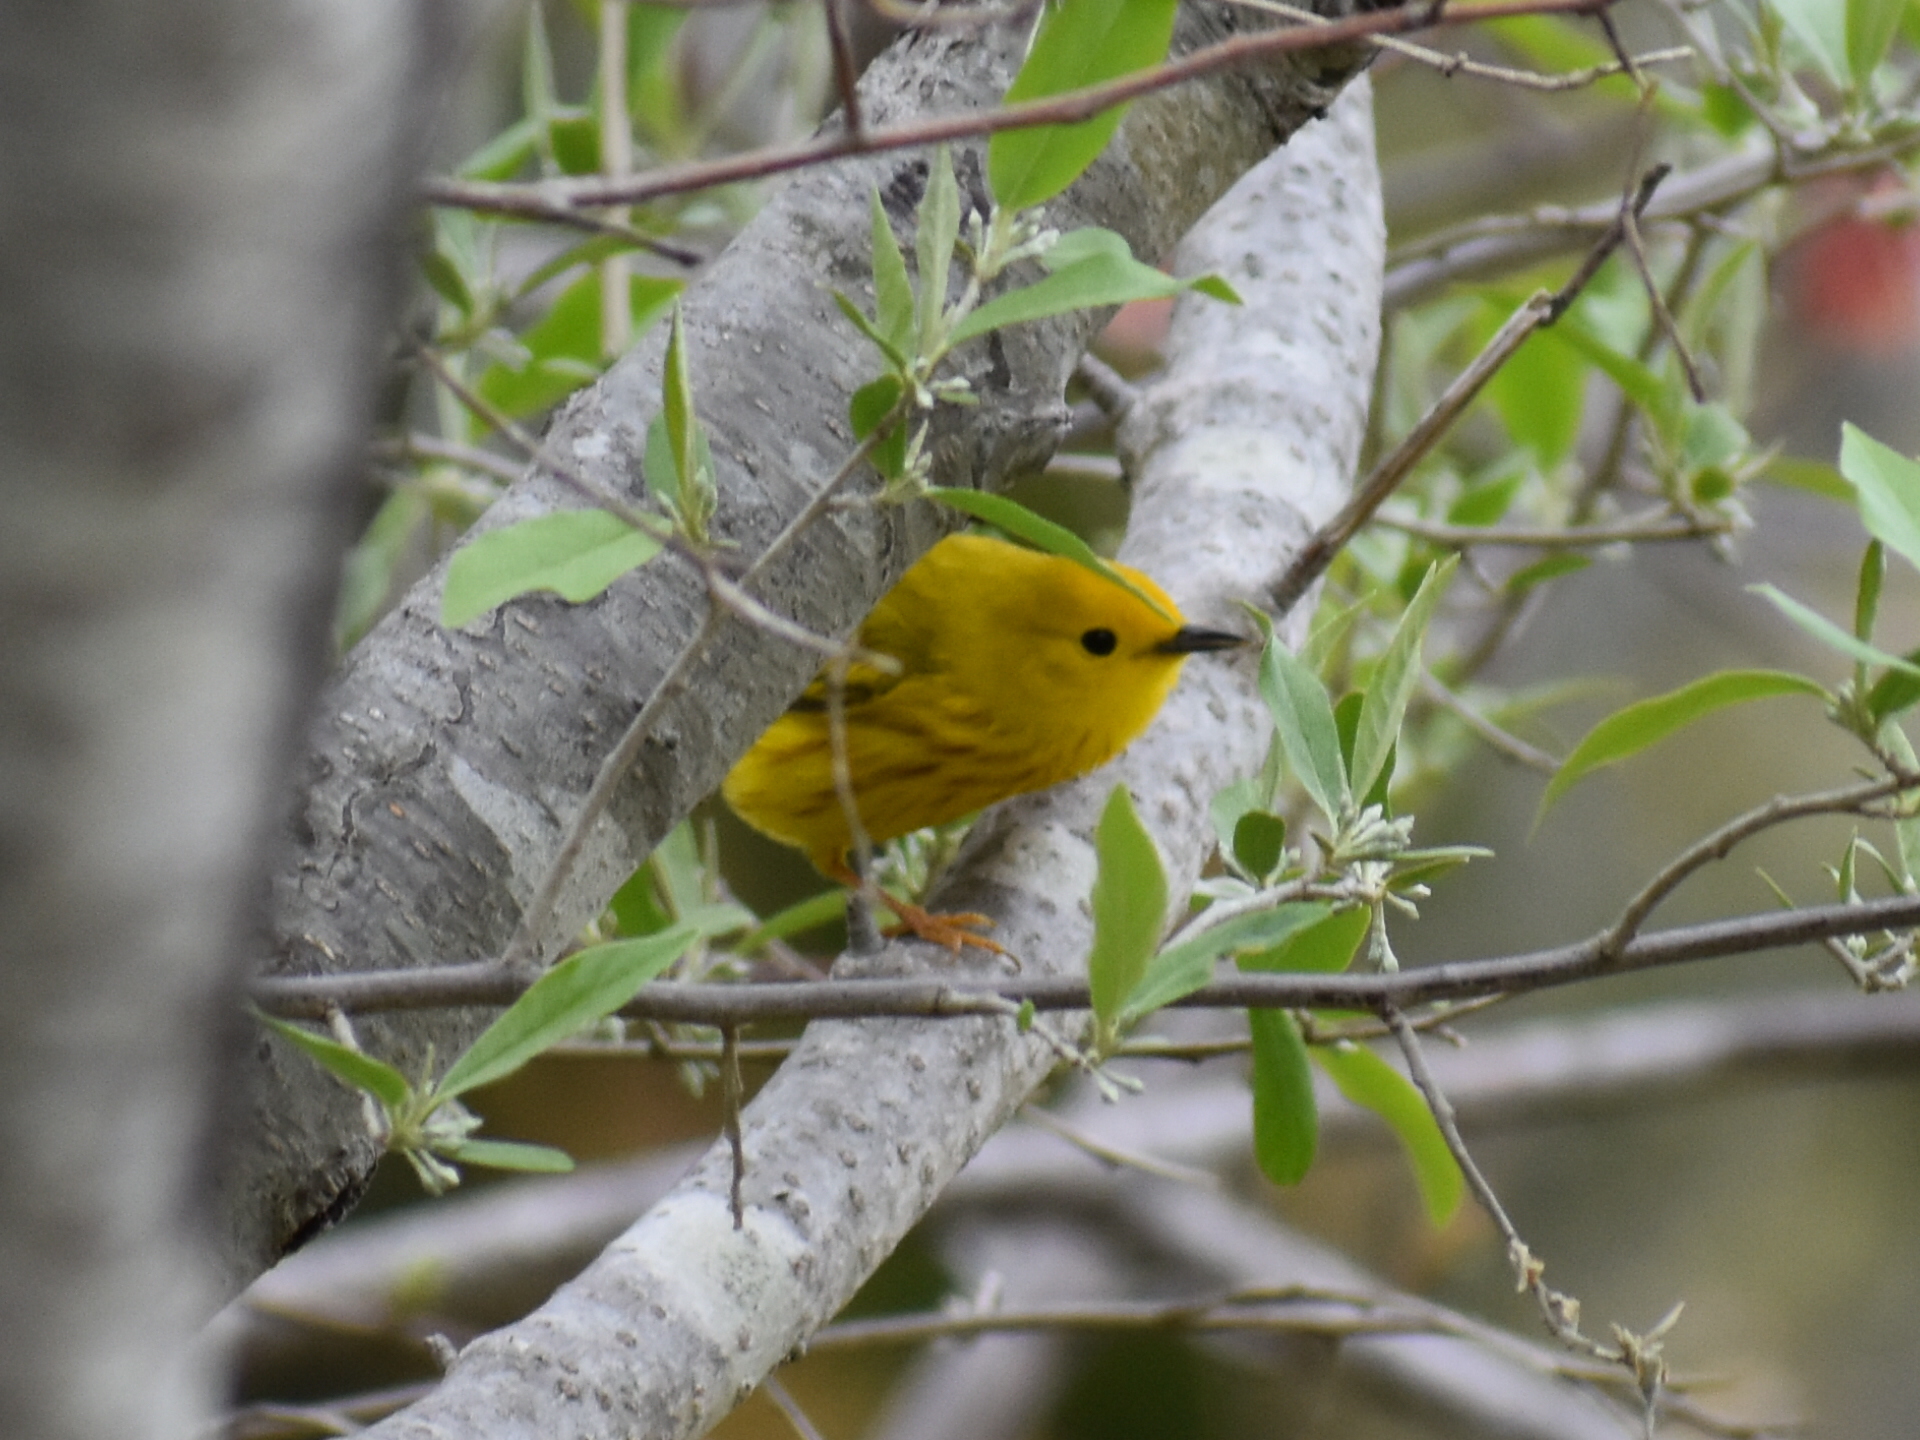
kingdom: Animalia
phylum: Chordata
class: Aves
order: Passeriformes
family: Parulidae
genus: Setophaga
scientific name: Setophaga petechia
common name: Yellow warbler
